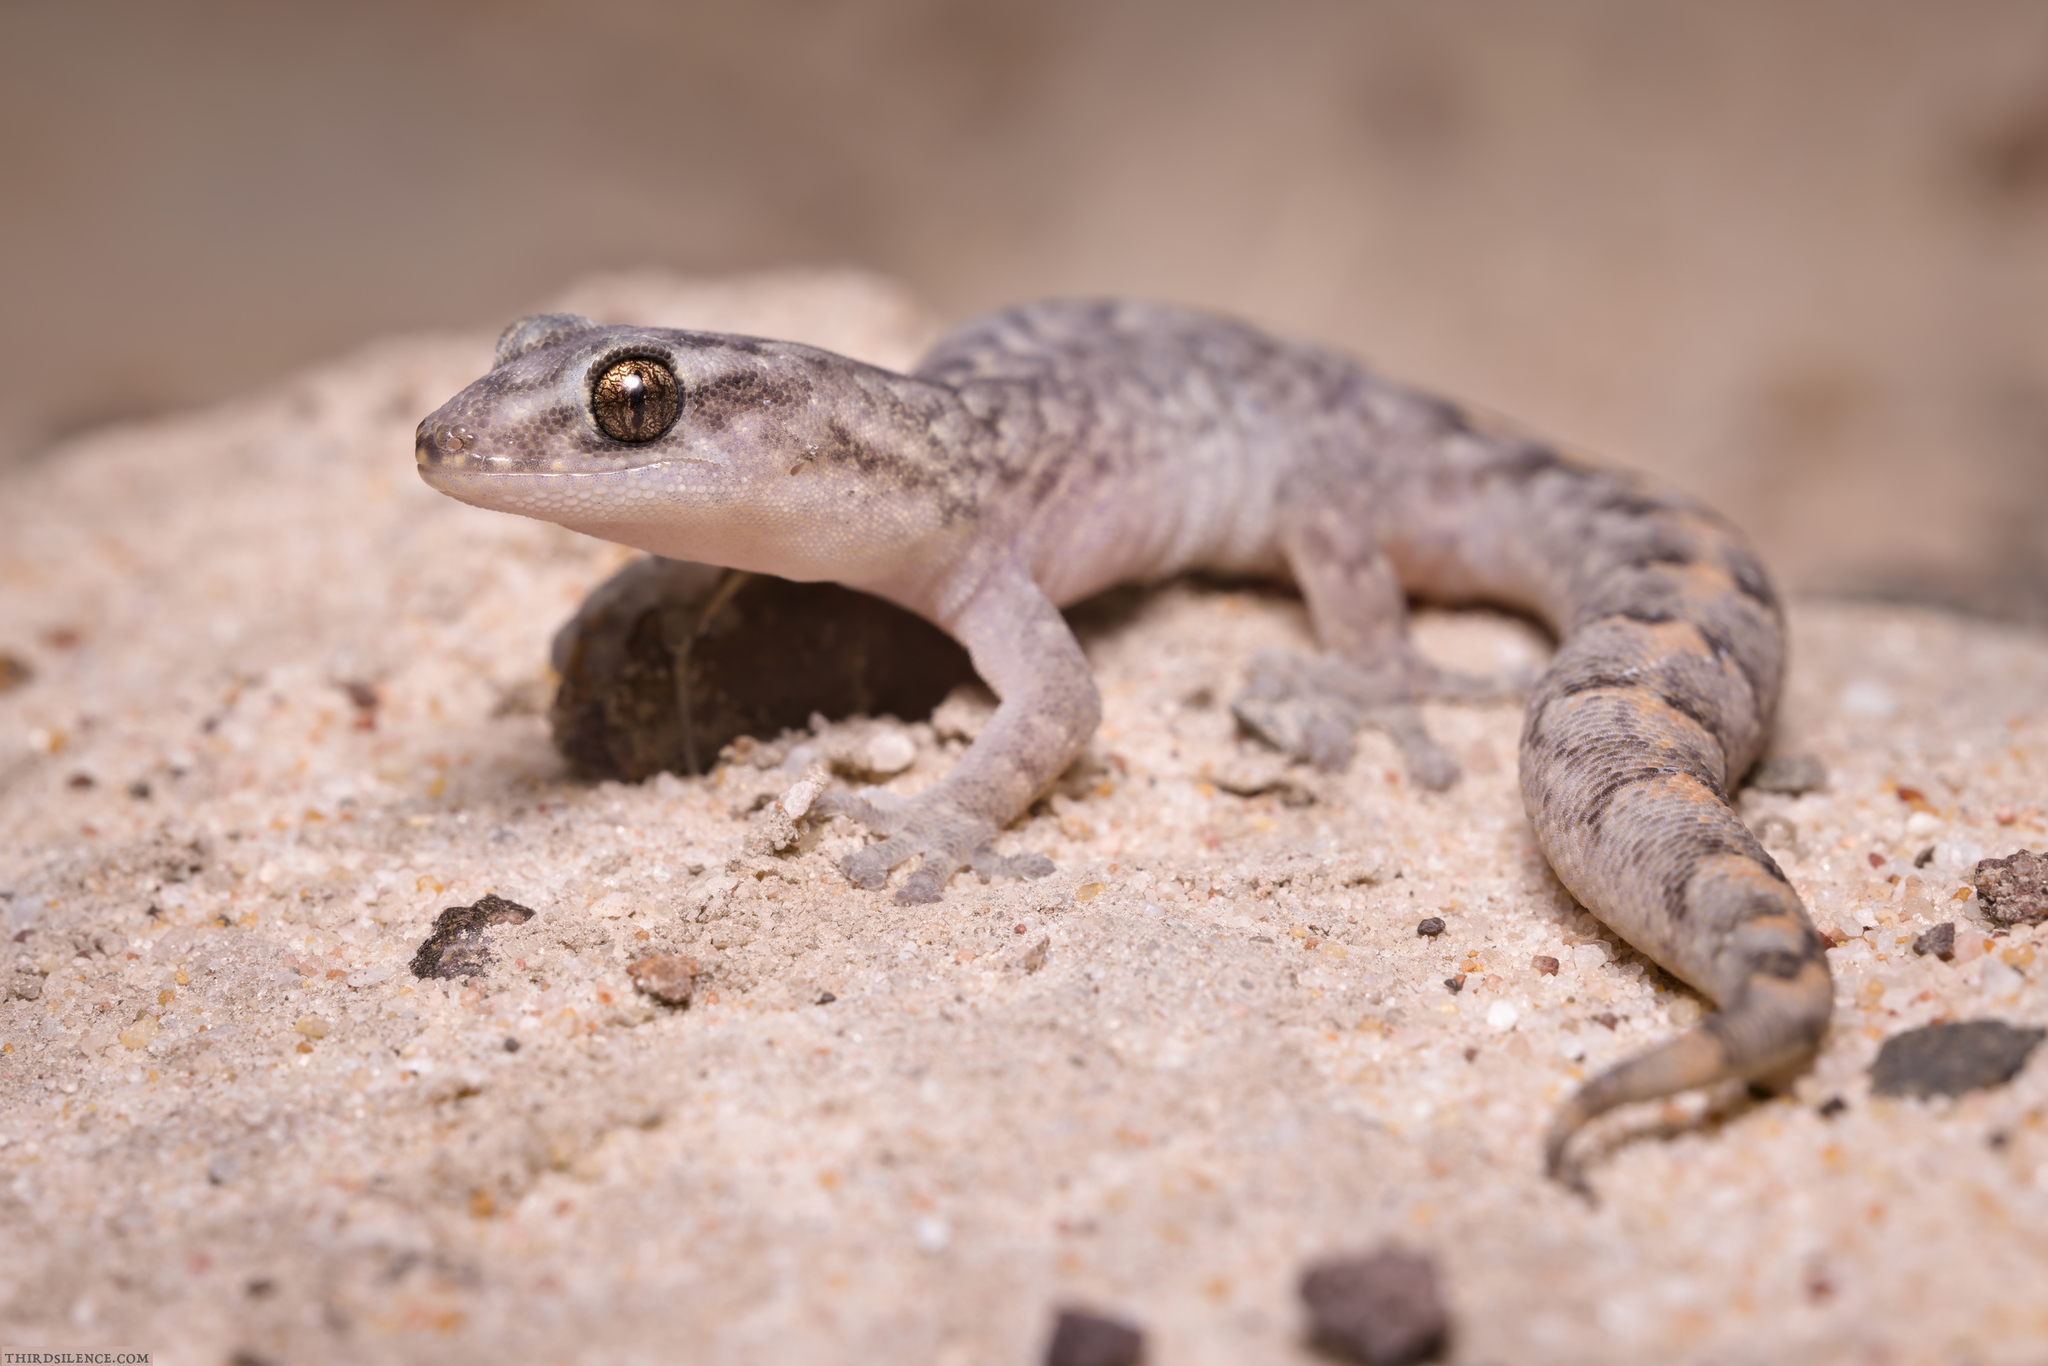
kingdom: Animalia
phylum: Chordata
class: Squamata
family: Gekkonidae
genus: Christinus
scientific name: Christinus marmoratus
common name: Marbled gecko
